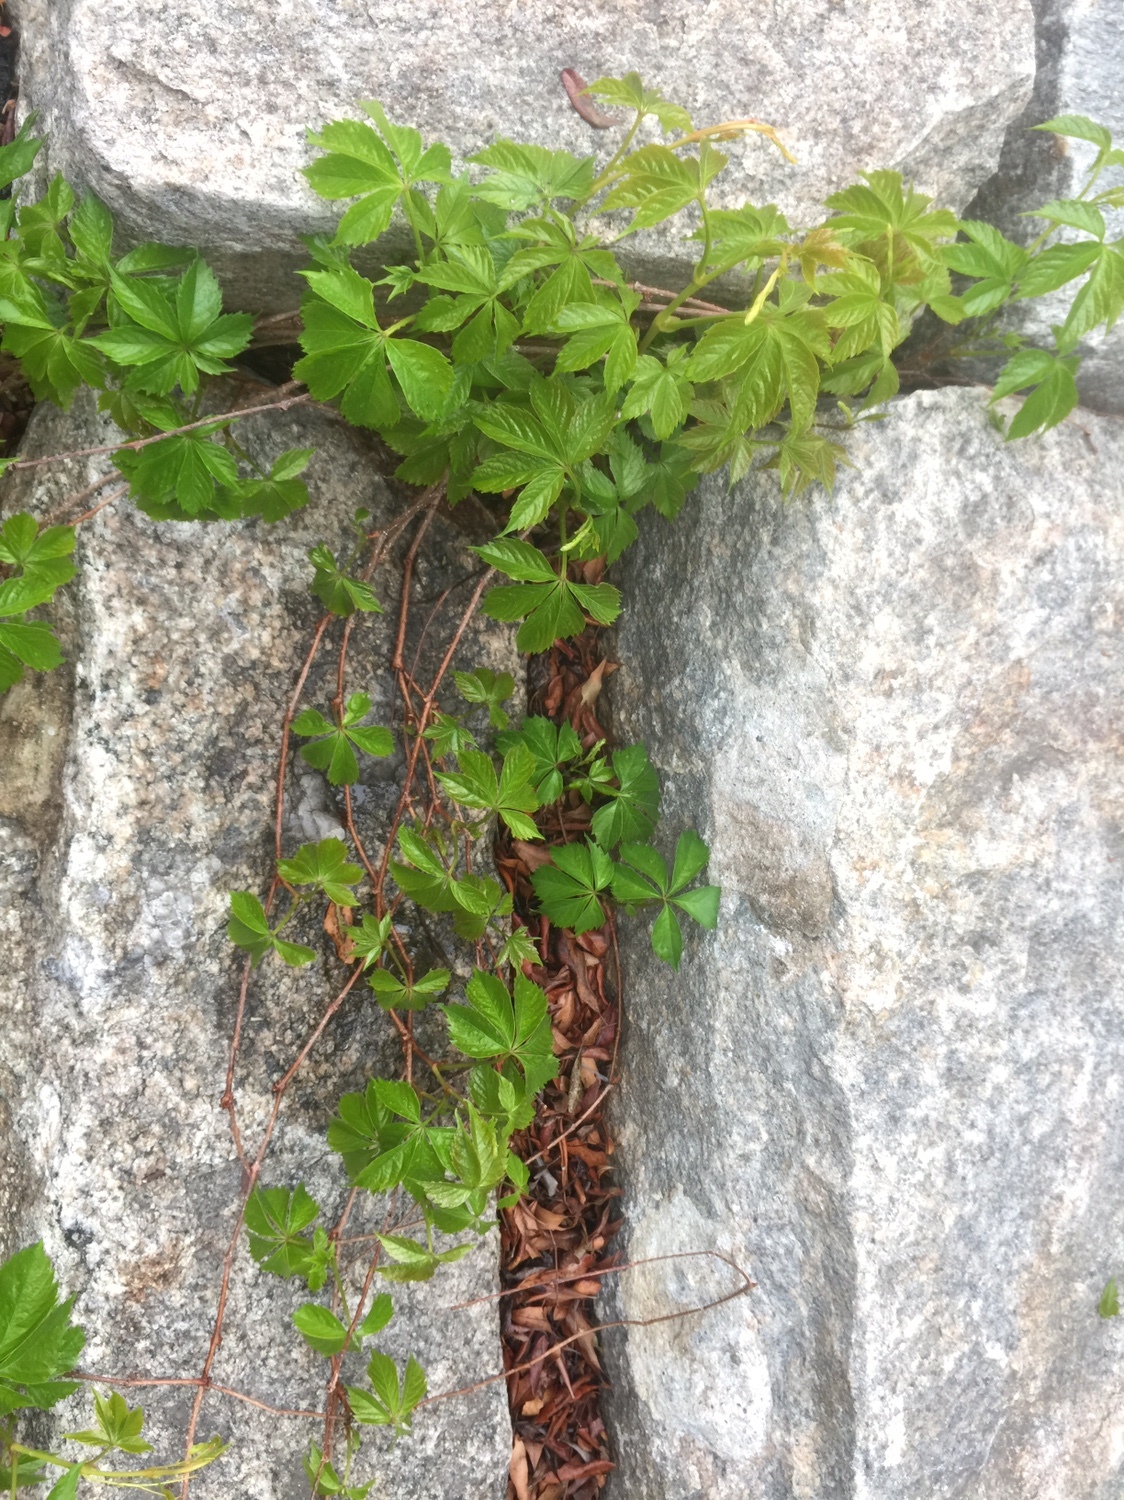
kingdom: Plantae
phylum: Tracheophyta
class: Magnoliopsida
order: Vitales
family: Vitaceae
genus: Parthenocissus
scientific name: Parthenocissus quinquefolia
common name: Virginia-creeper
